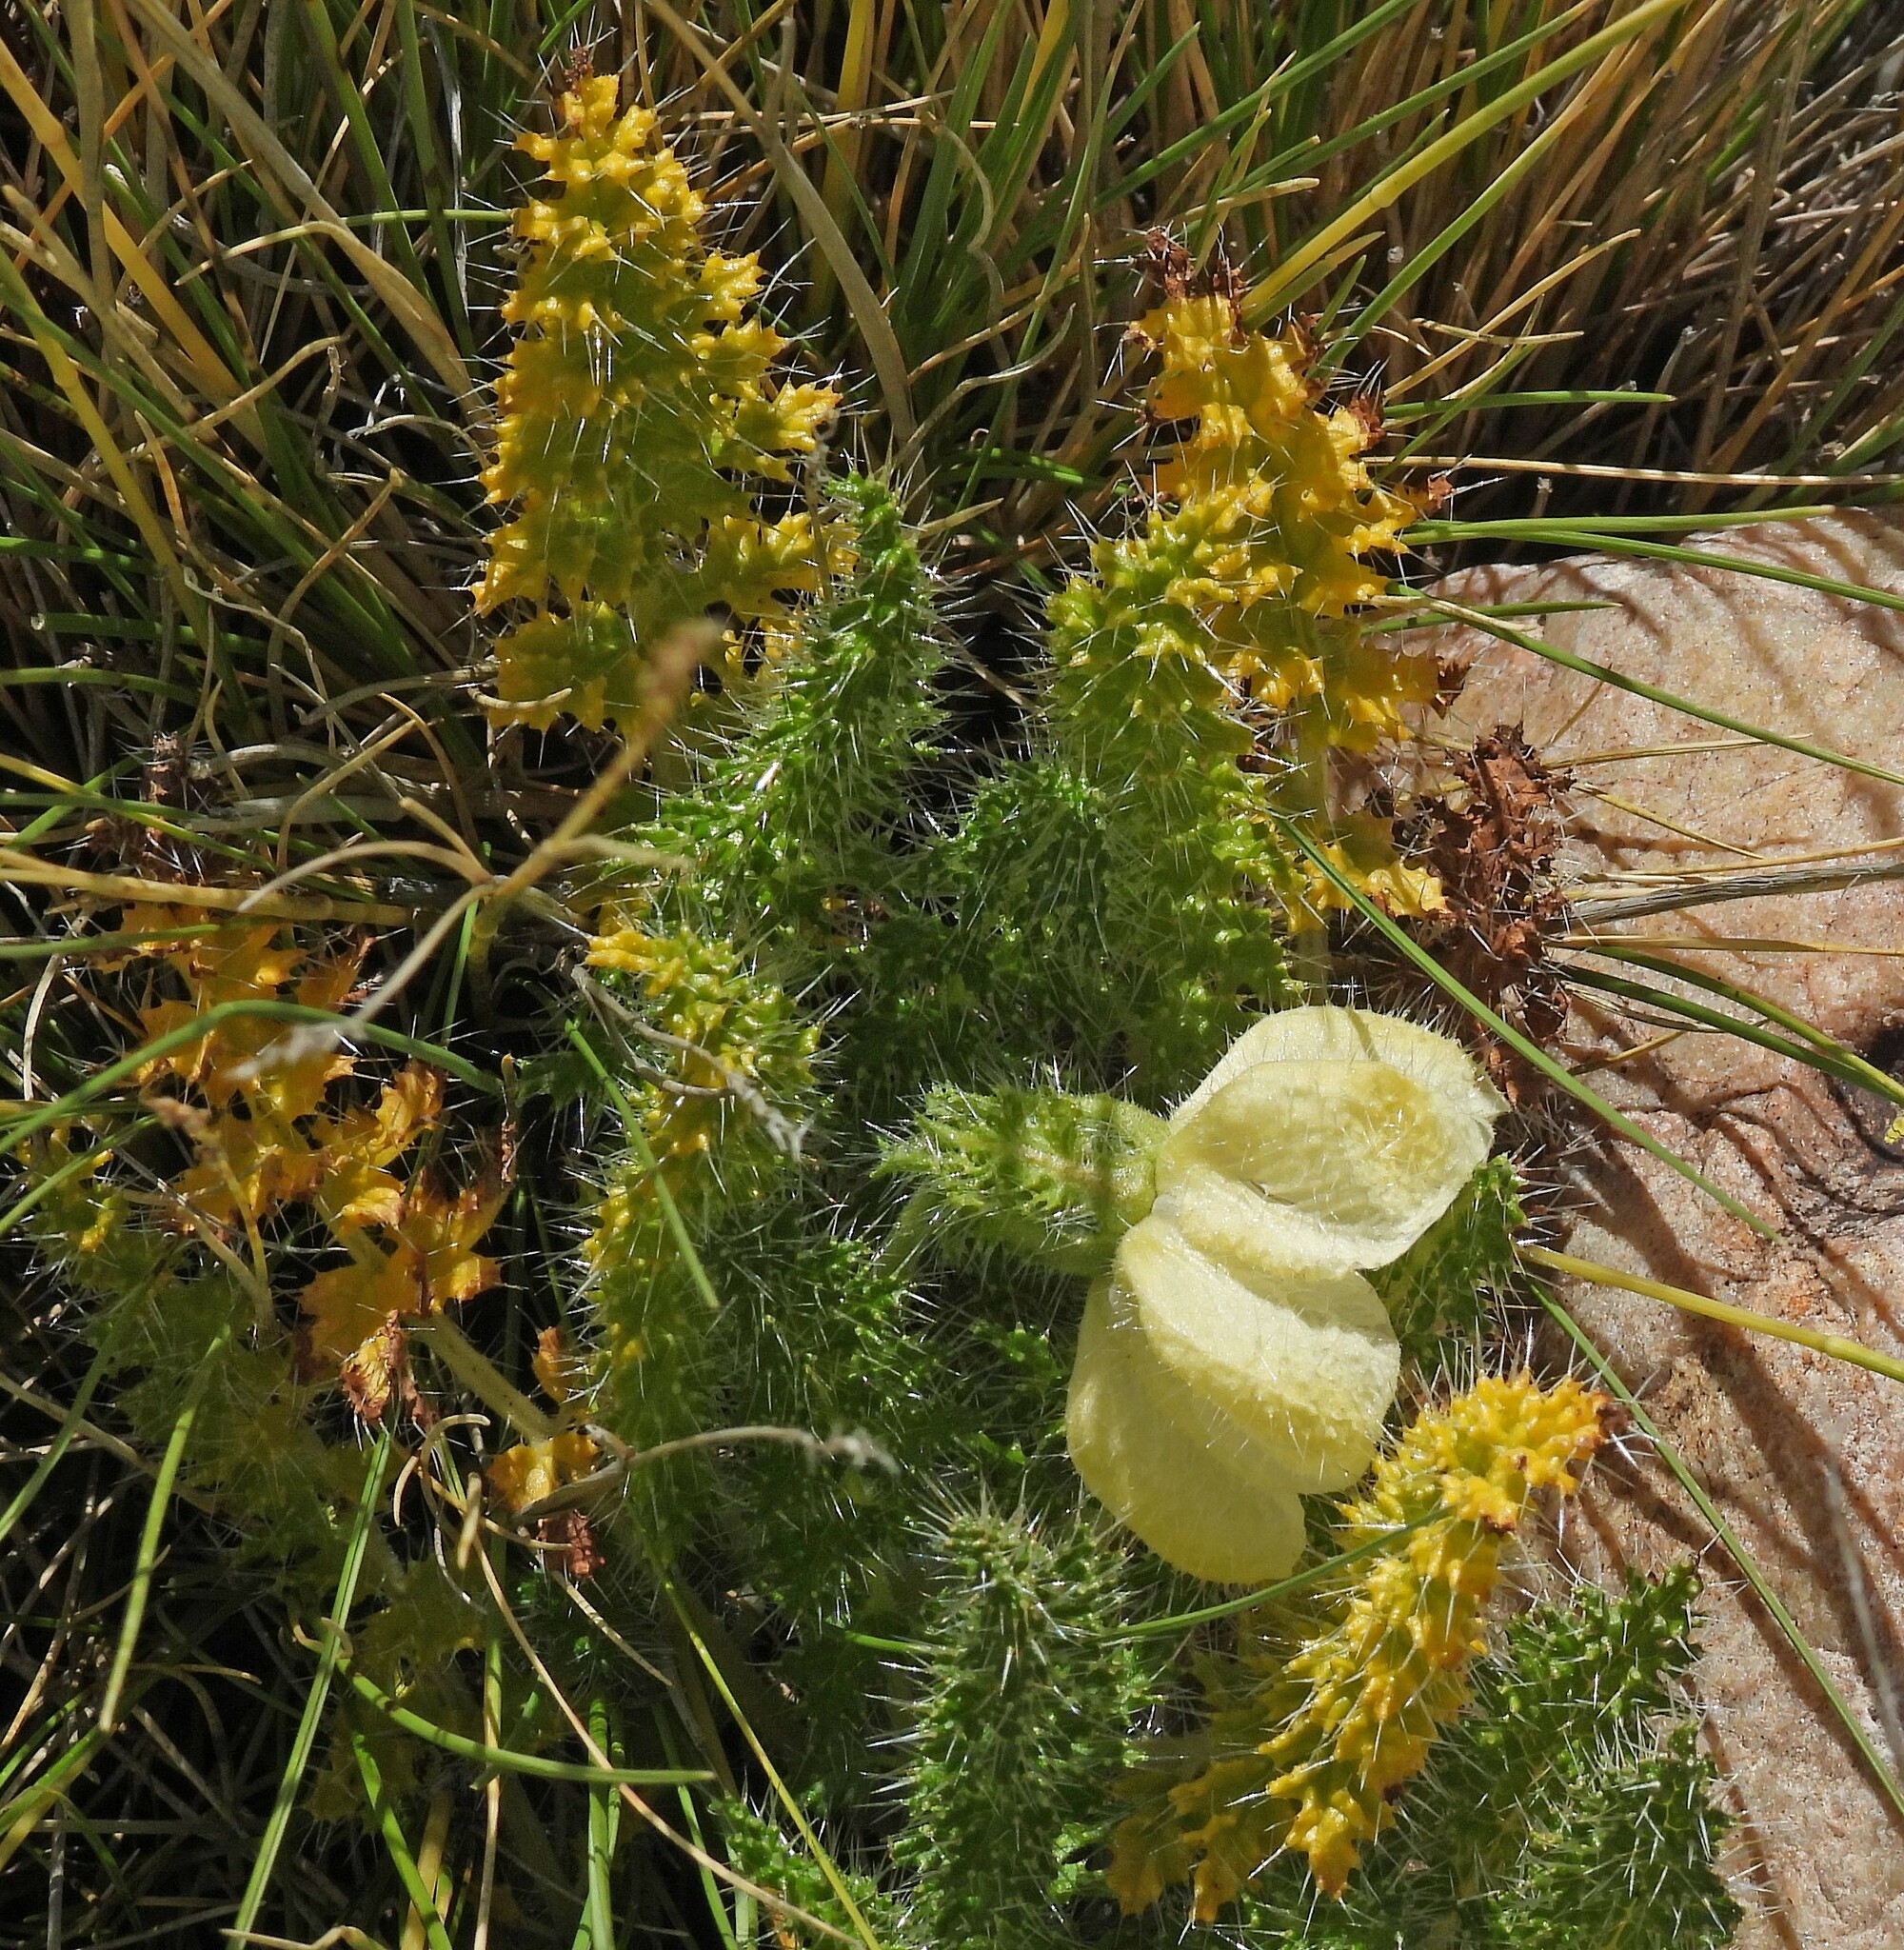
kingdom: Plantae
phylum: Tracheophyta
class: Magnoliopsida
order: Cornales
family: Loasaceae
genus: Caiophora
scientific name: Caiophora coronata
